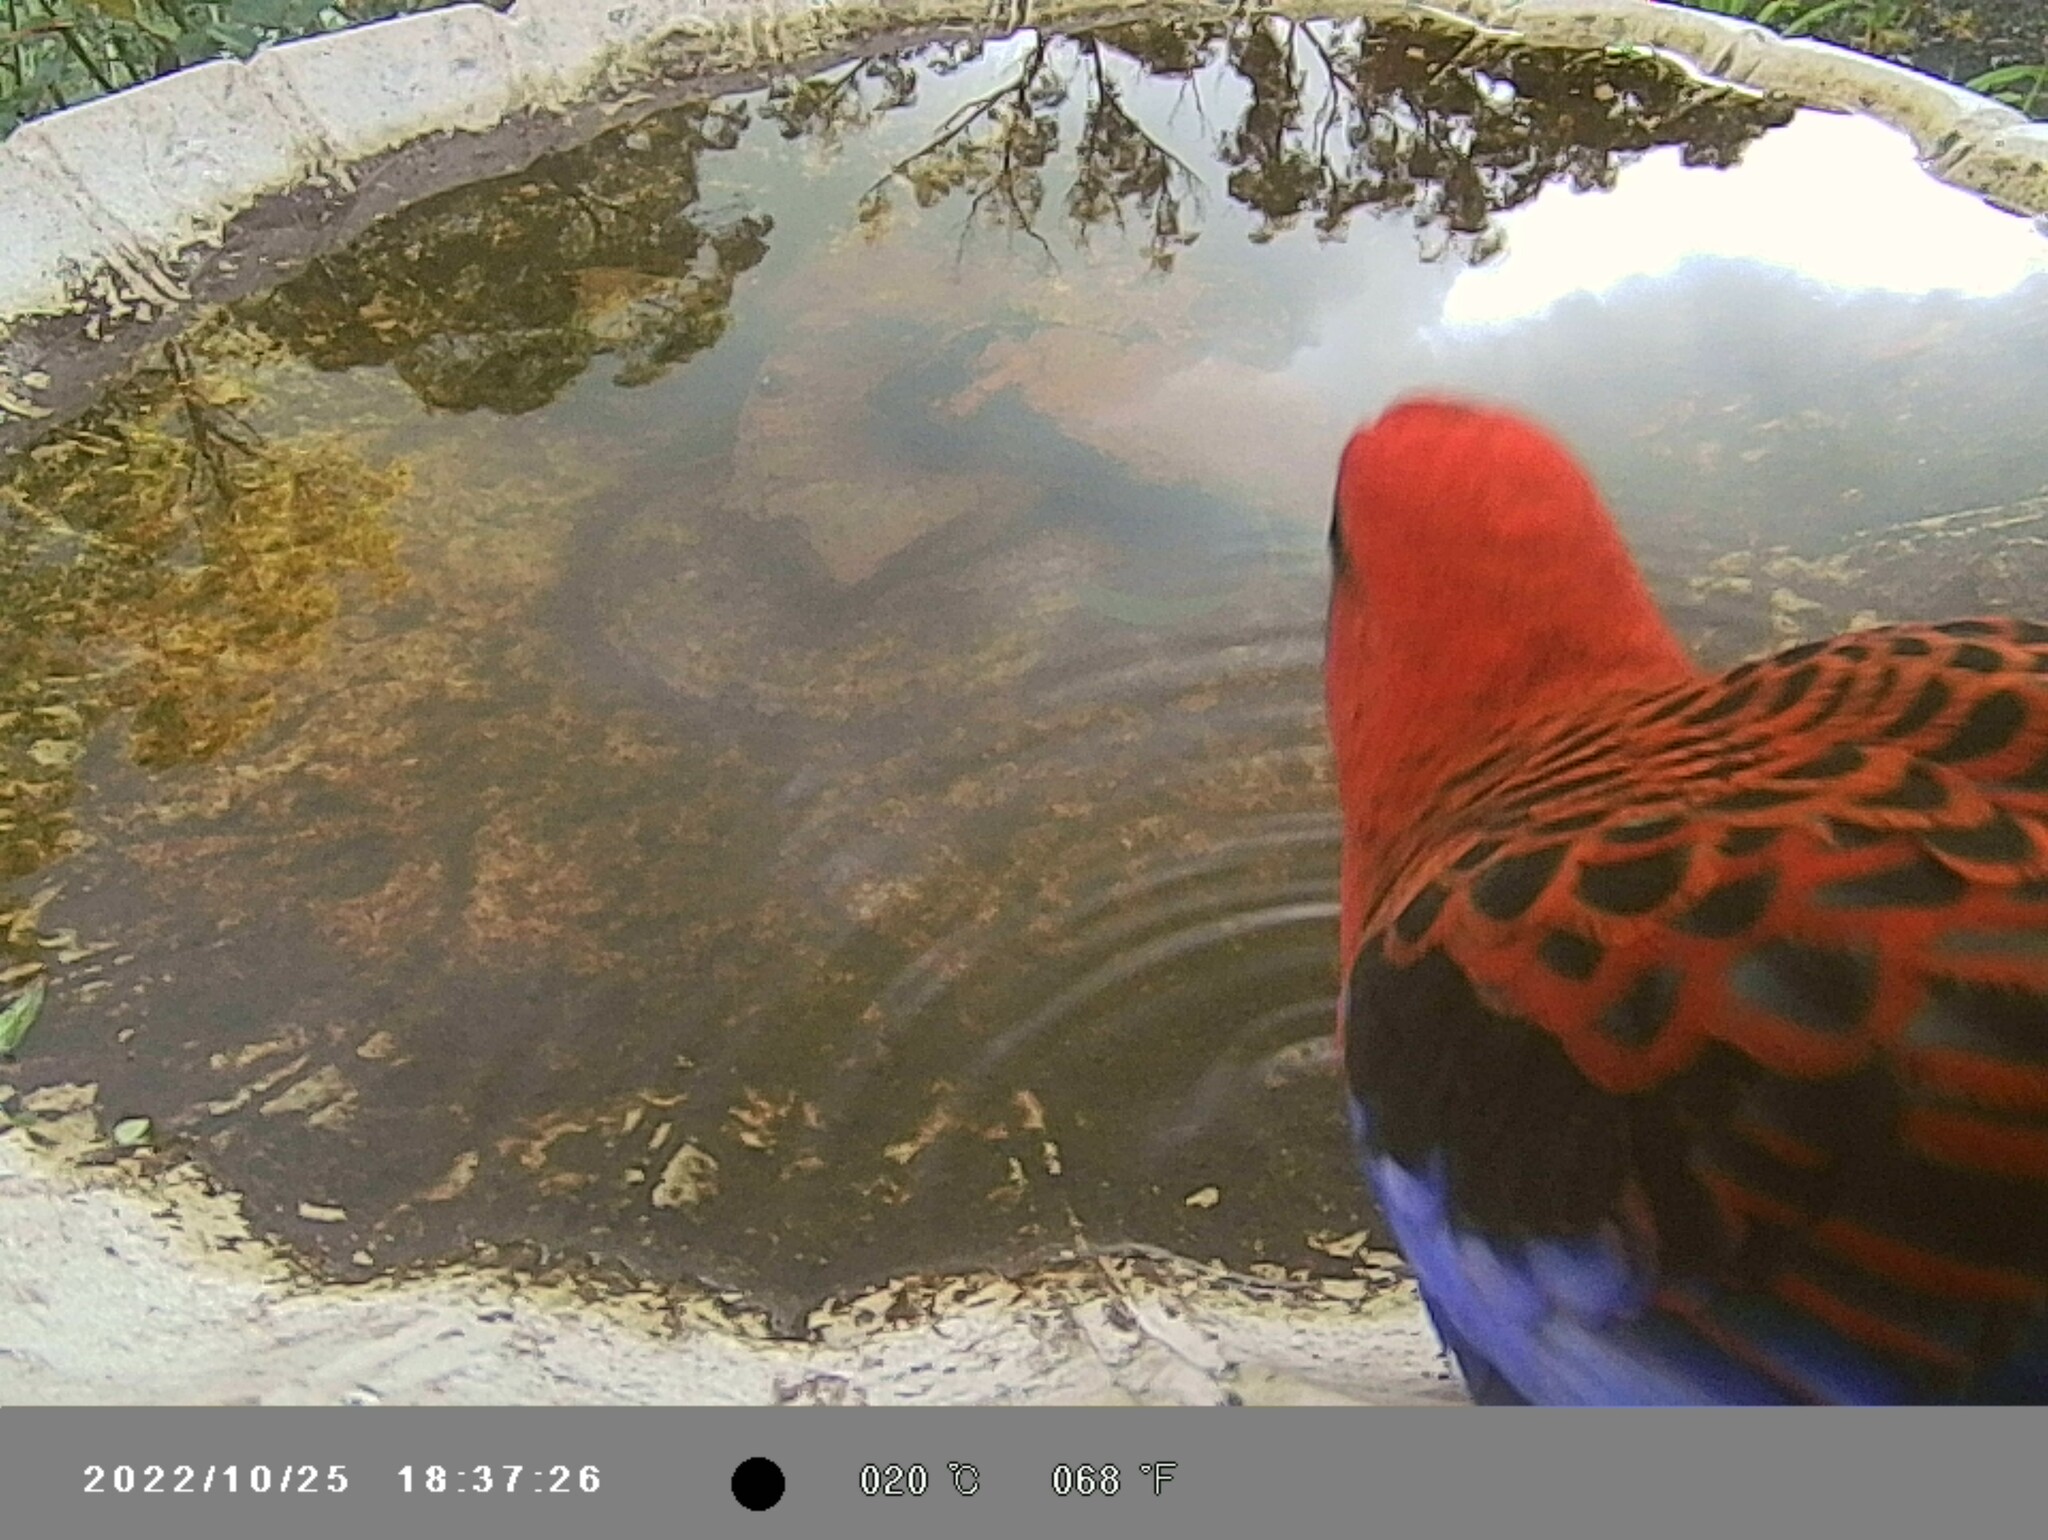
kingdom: Animalia
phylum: Chordata
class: Aves
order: Psittaciformes
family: Psittacidae
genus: Platycercus
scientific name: Platycercus elegans
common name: Crimson rosella
